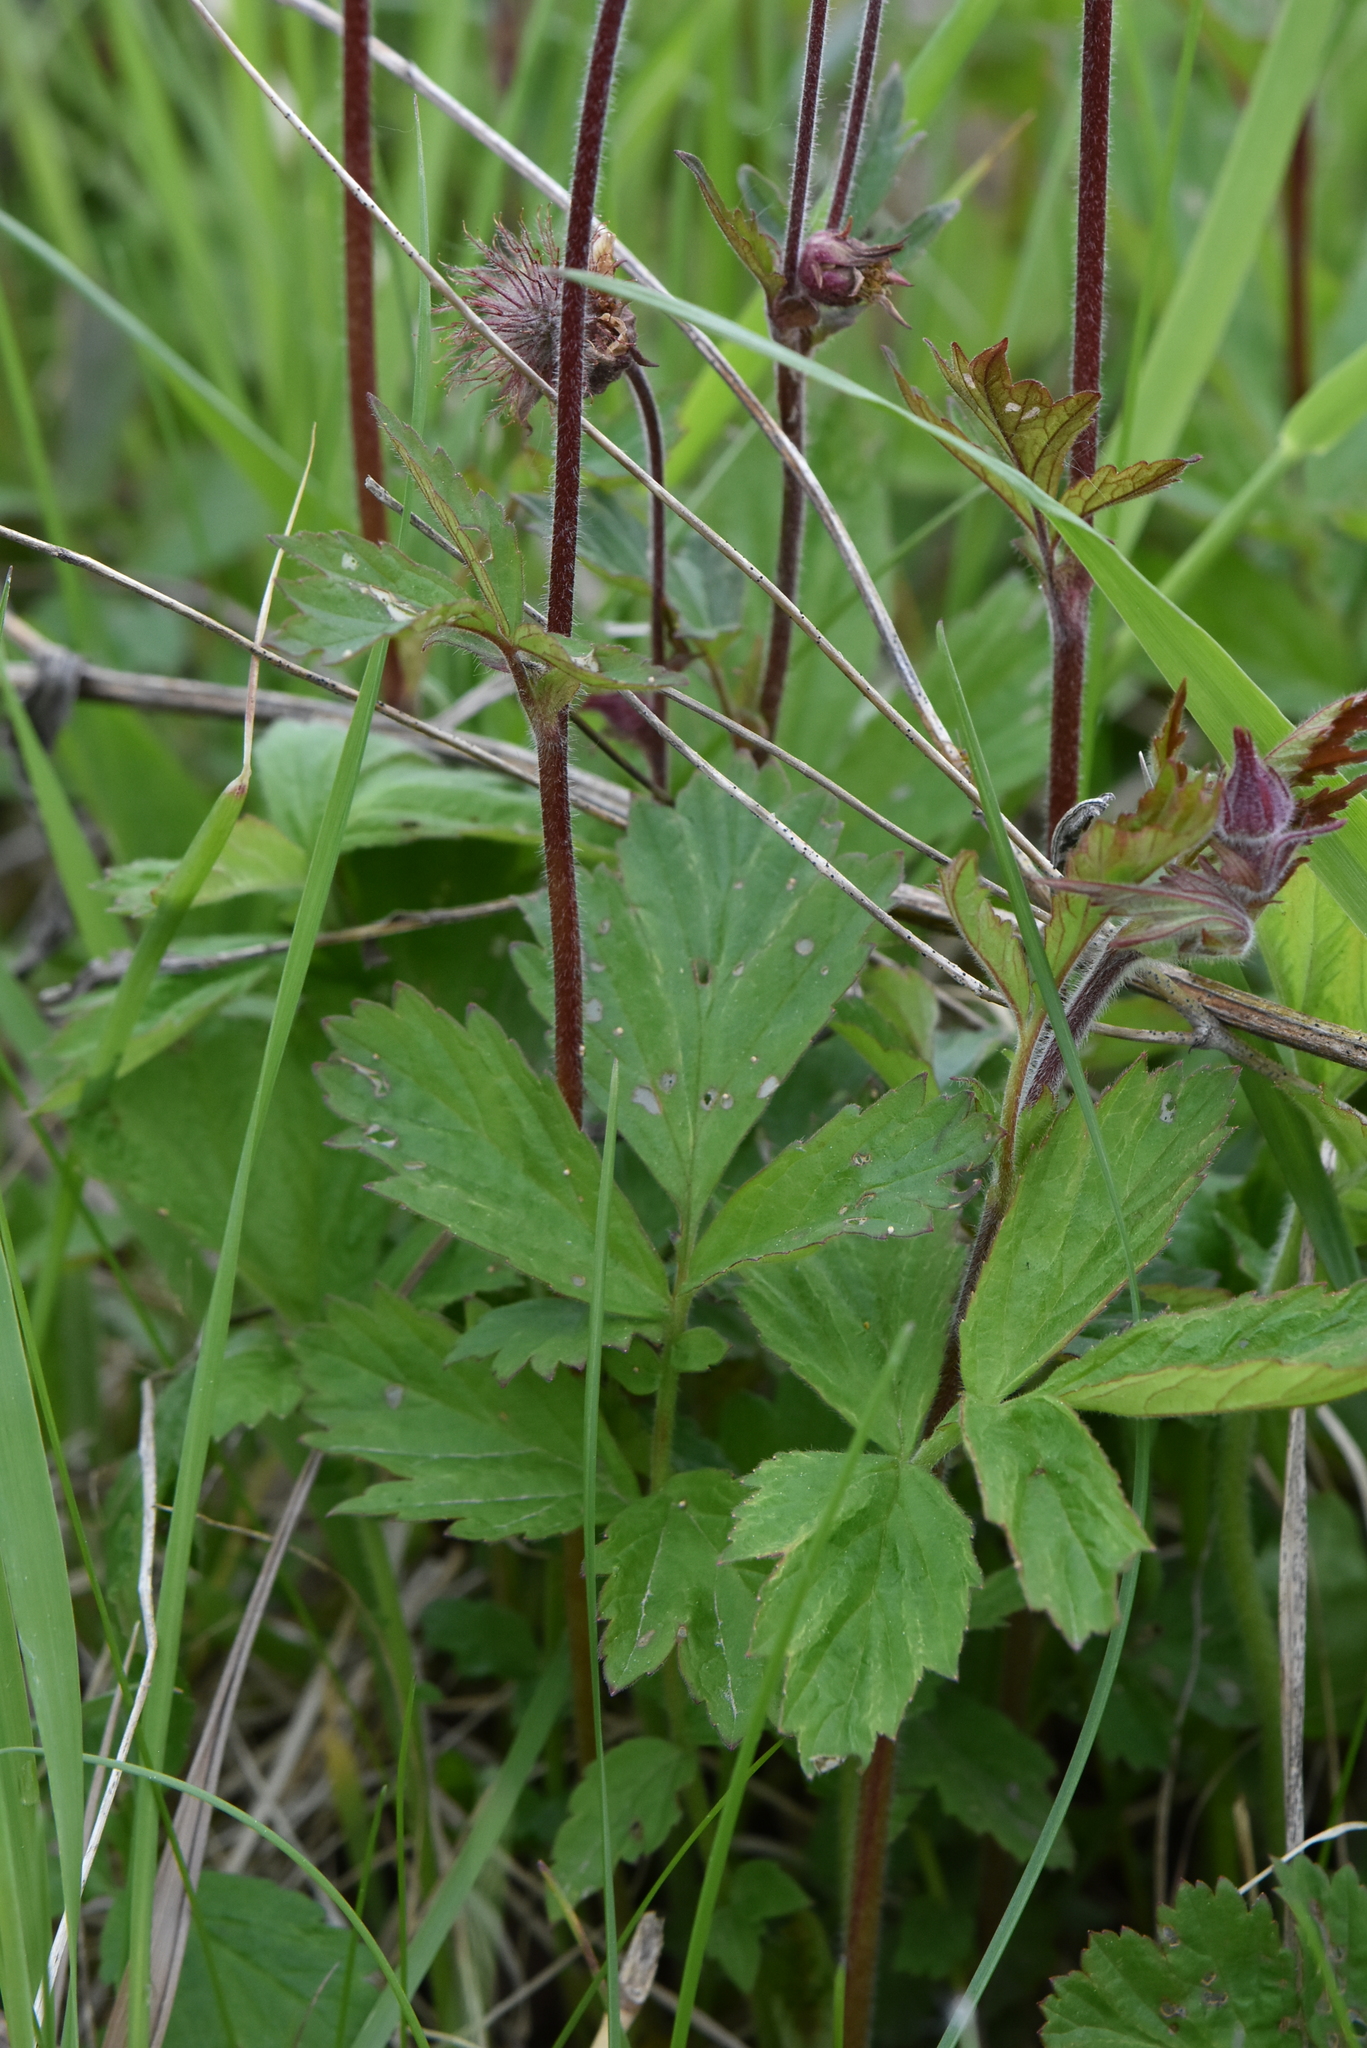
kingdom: Plantae
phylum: Tracheophyta
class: Magnoliopsida
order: Rosales
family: Rosaceae
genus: Geum
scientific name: Geum rivale
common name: Water avens
